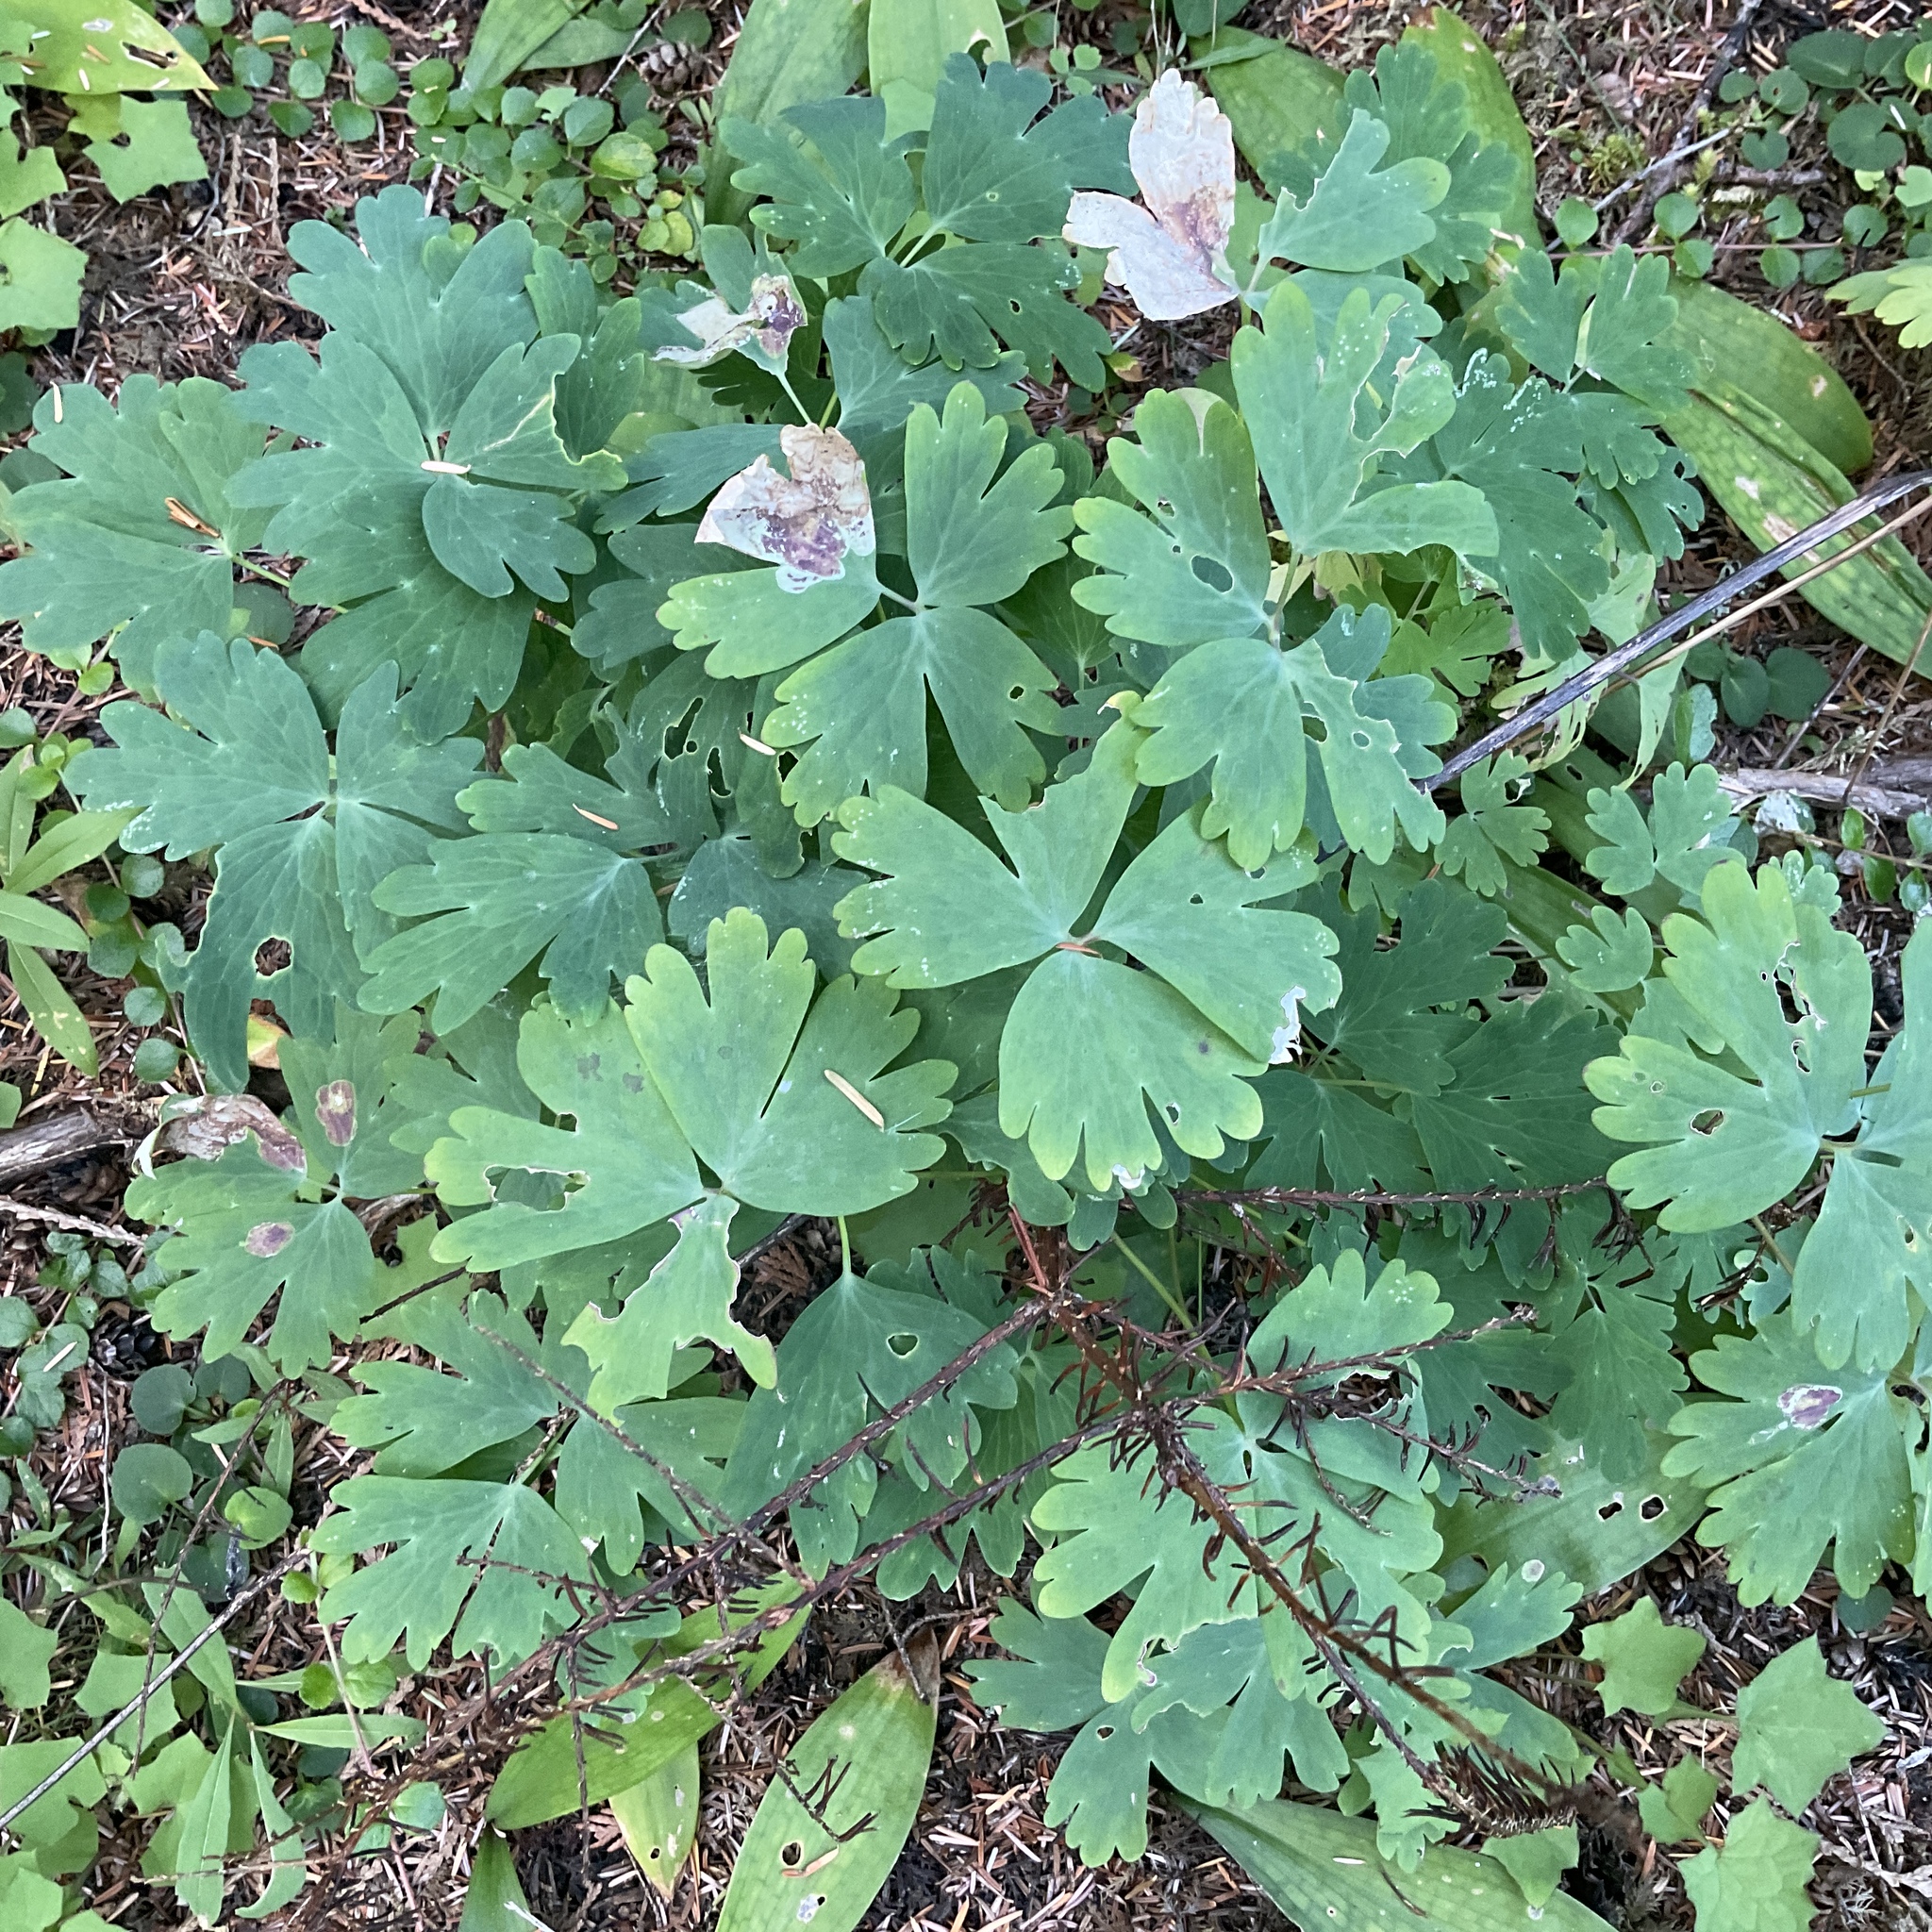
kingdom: Plantae
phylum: Tracheophyta
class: Magnoliopsida
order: Ranunculales
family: Ranunculaceae
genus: Aquilegia
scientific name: Aquilegia formosa
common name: Sitka columbine
